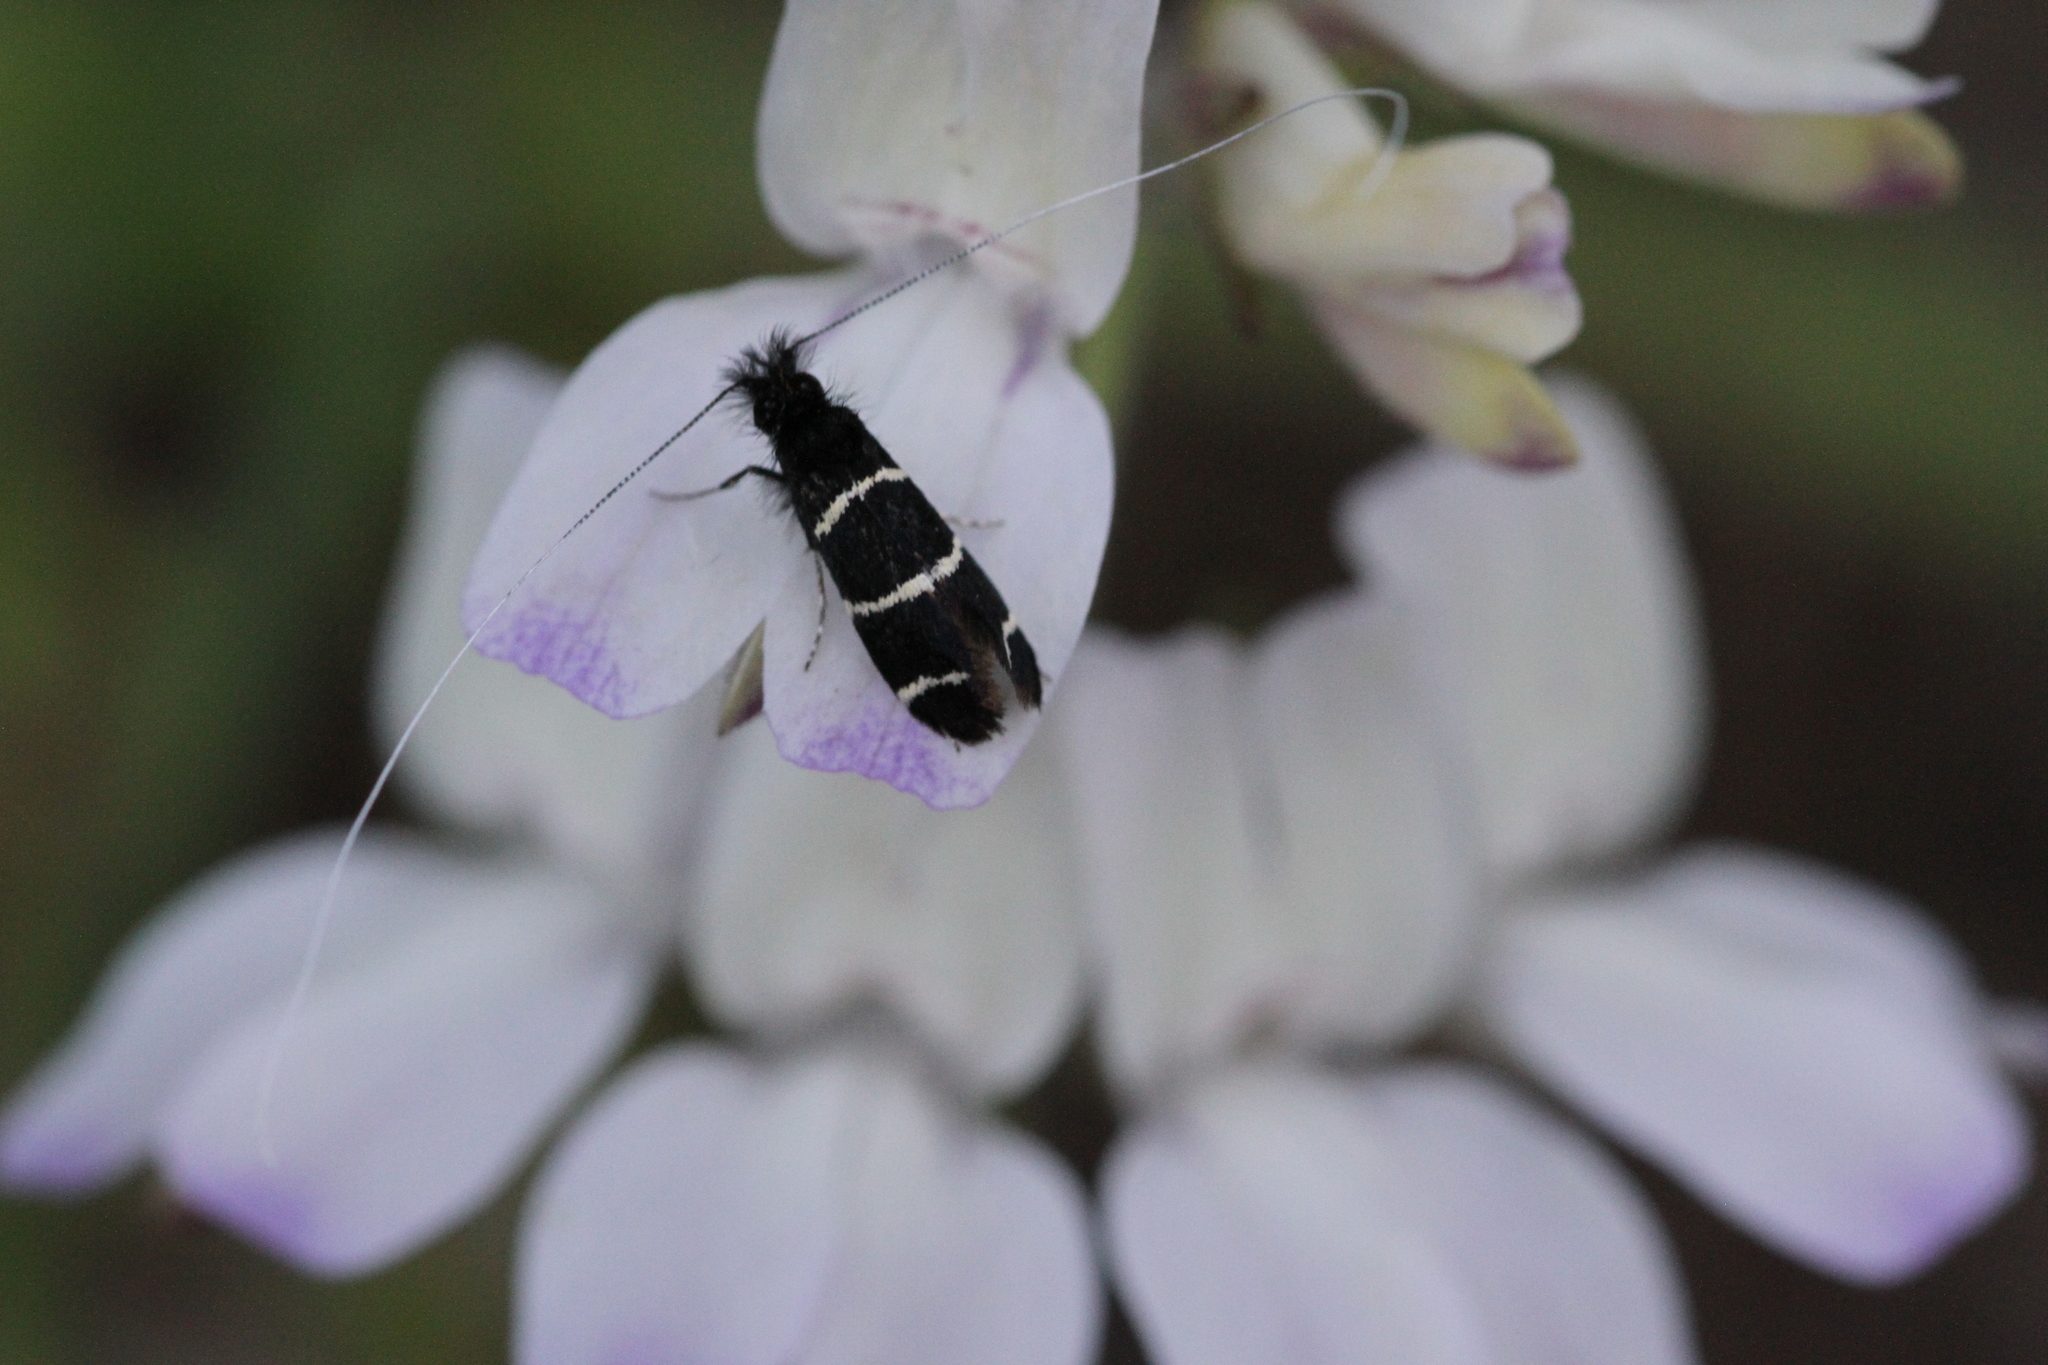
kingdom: Animalia
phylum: Arthropoda
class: Insecta
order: Lepidoptera
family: Adelidae
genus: Adela
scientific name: Adela trigrapha
